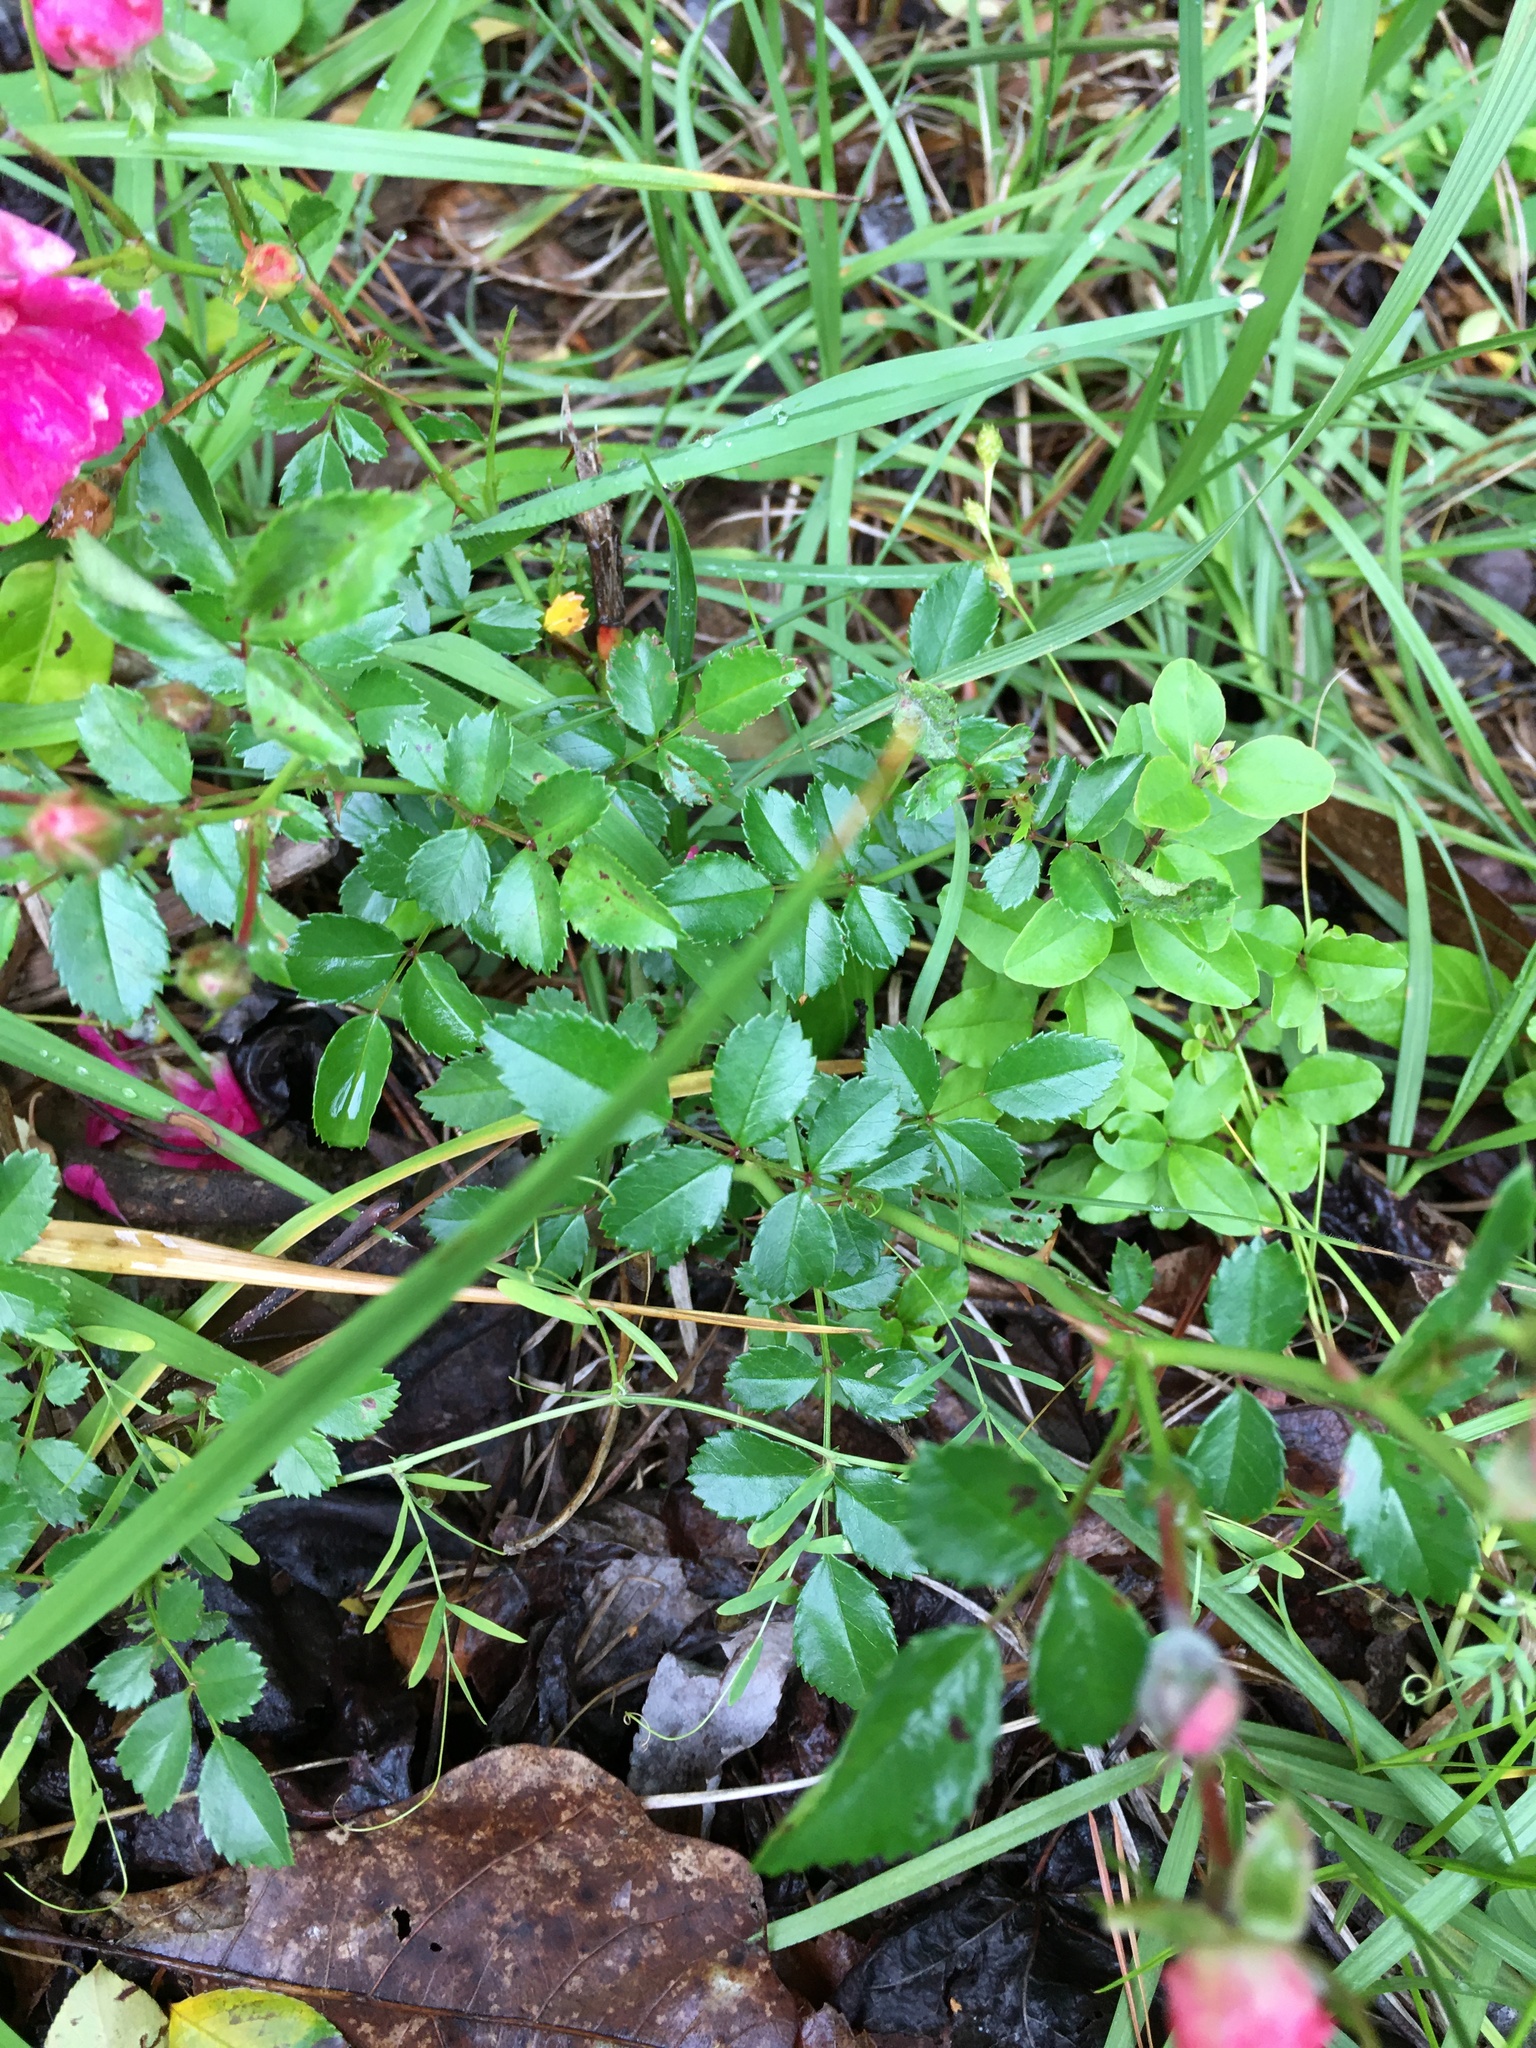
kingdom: Plantae
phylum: Tracheophyta
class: Magnoliopsida
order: Rosales
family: Rosaceae
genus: Rosa
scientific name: Rosa
